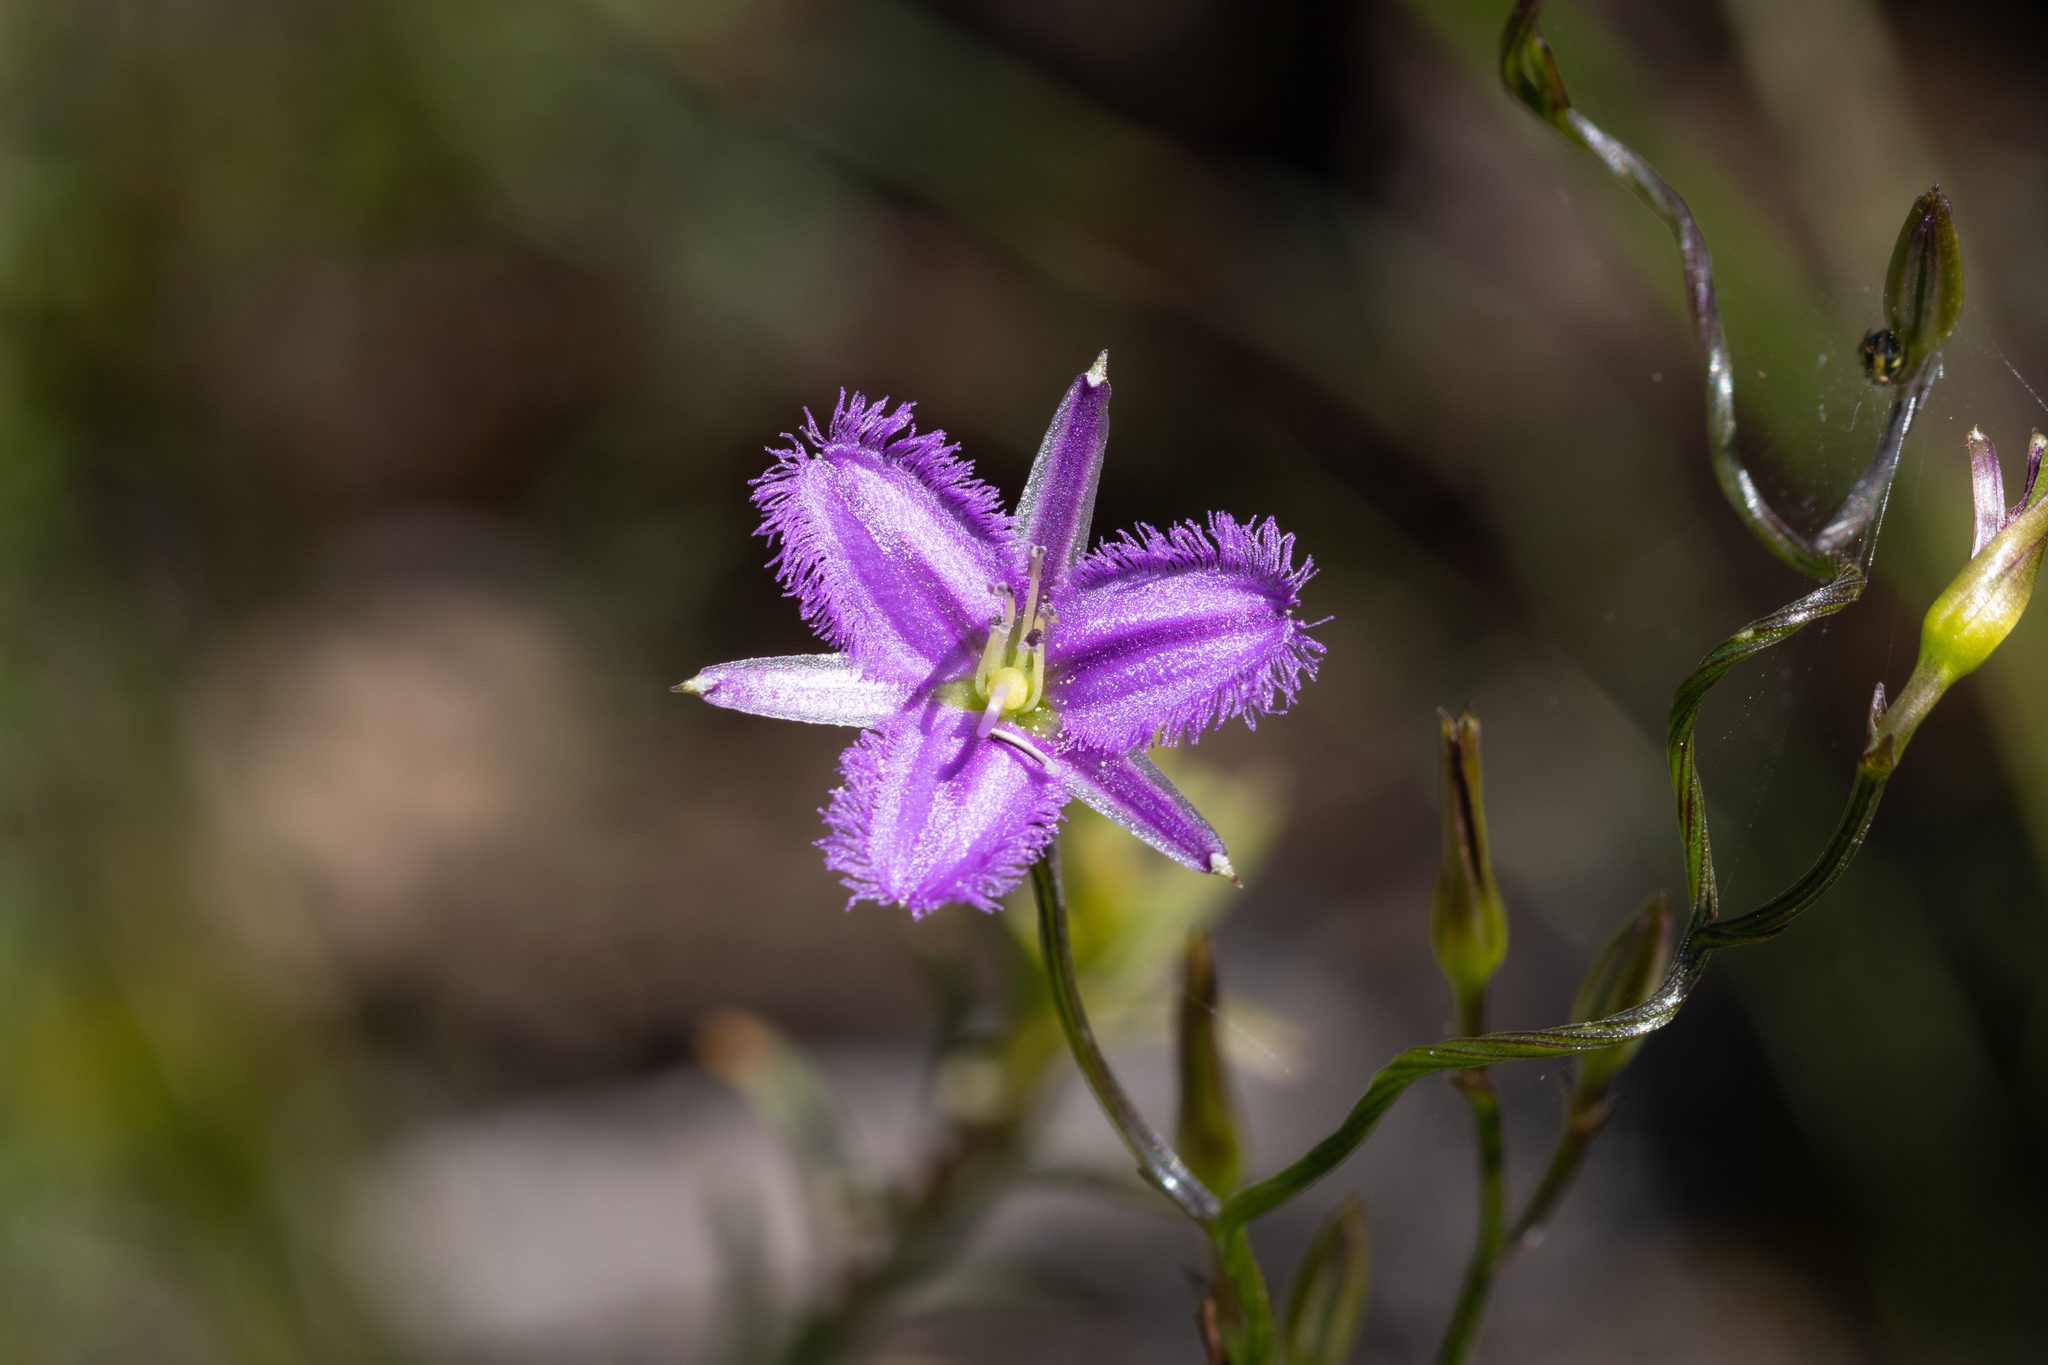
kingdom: Plantae
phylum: Tracheophyta
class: Liliopsida
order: Asparagales
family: Asparagaceae
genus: Thysanotus
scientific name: Thysanotus patersonii
